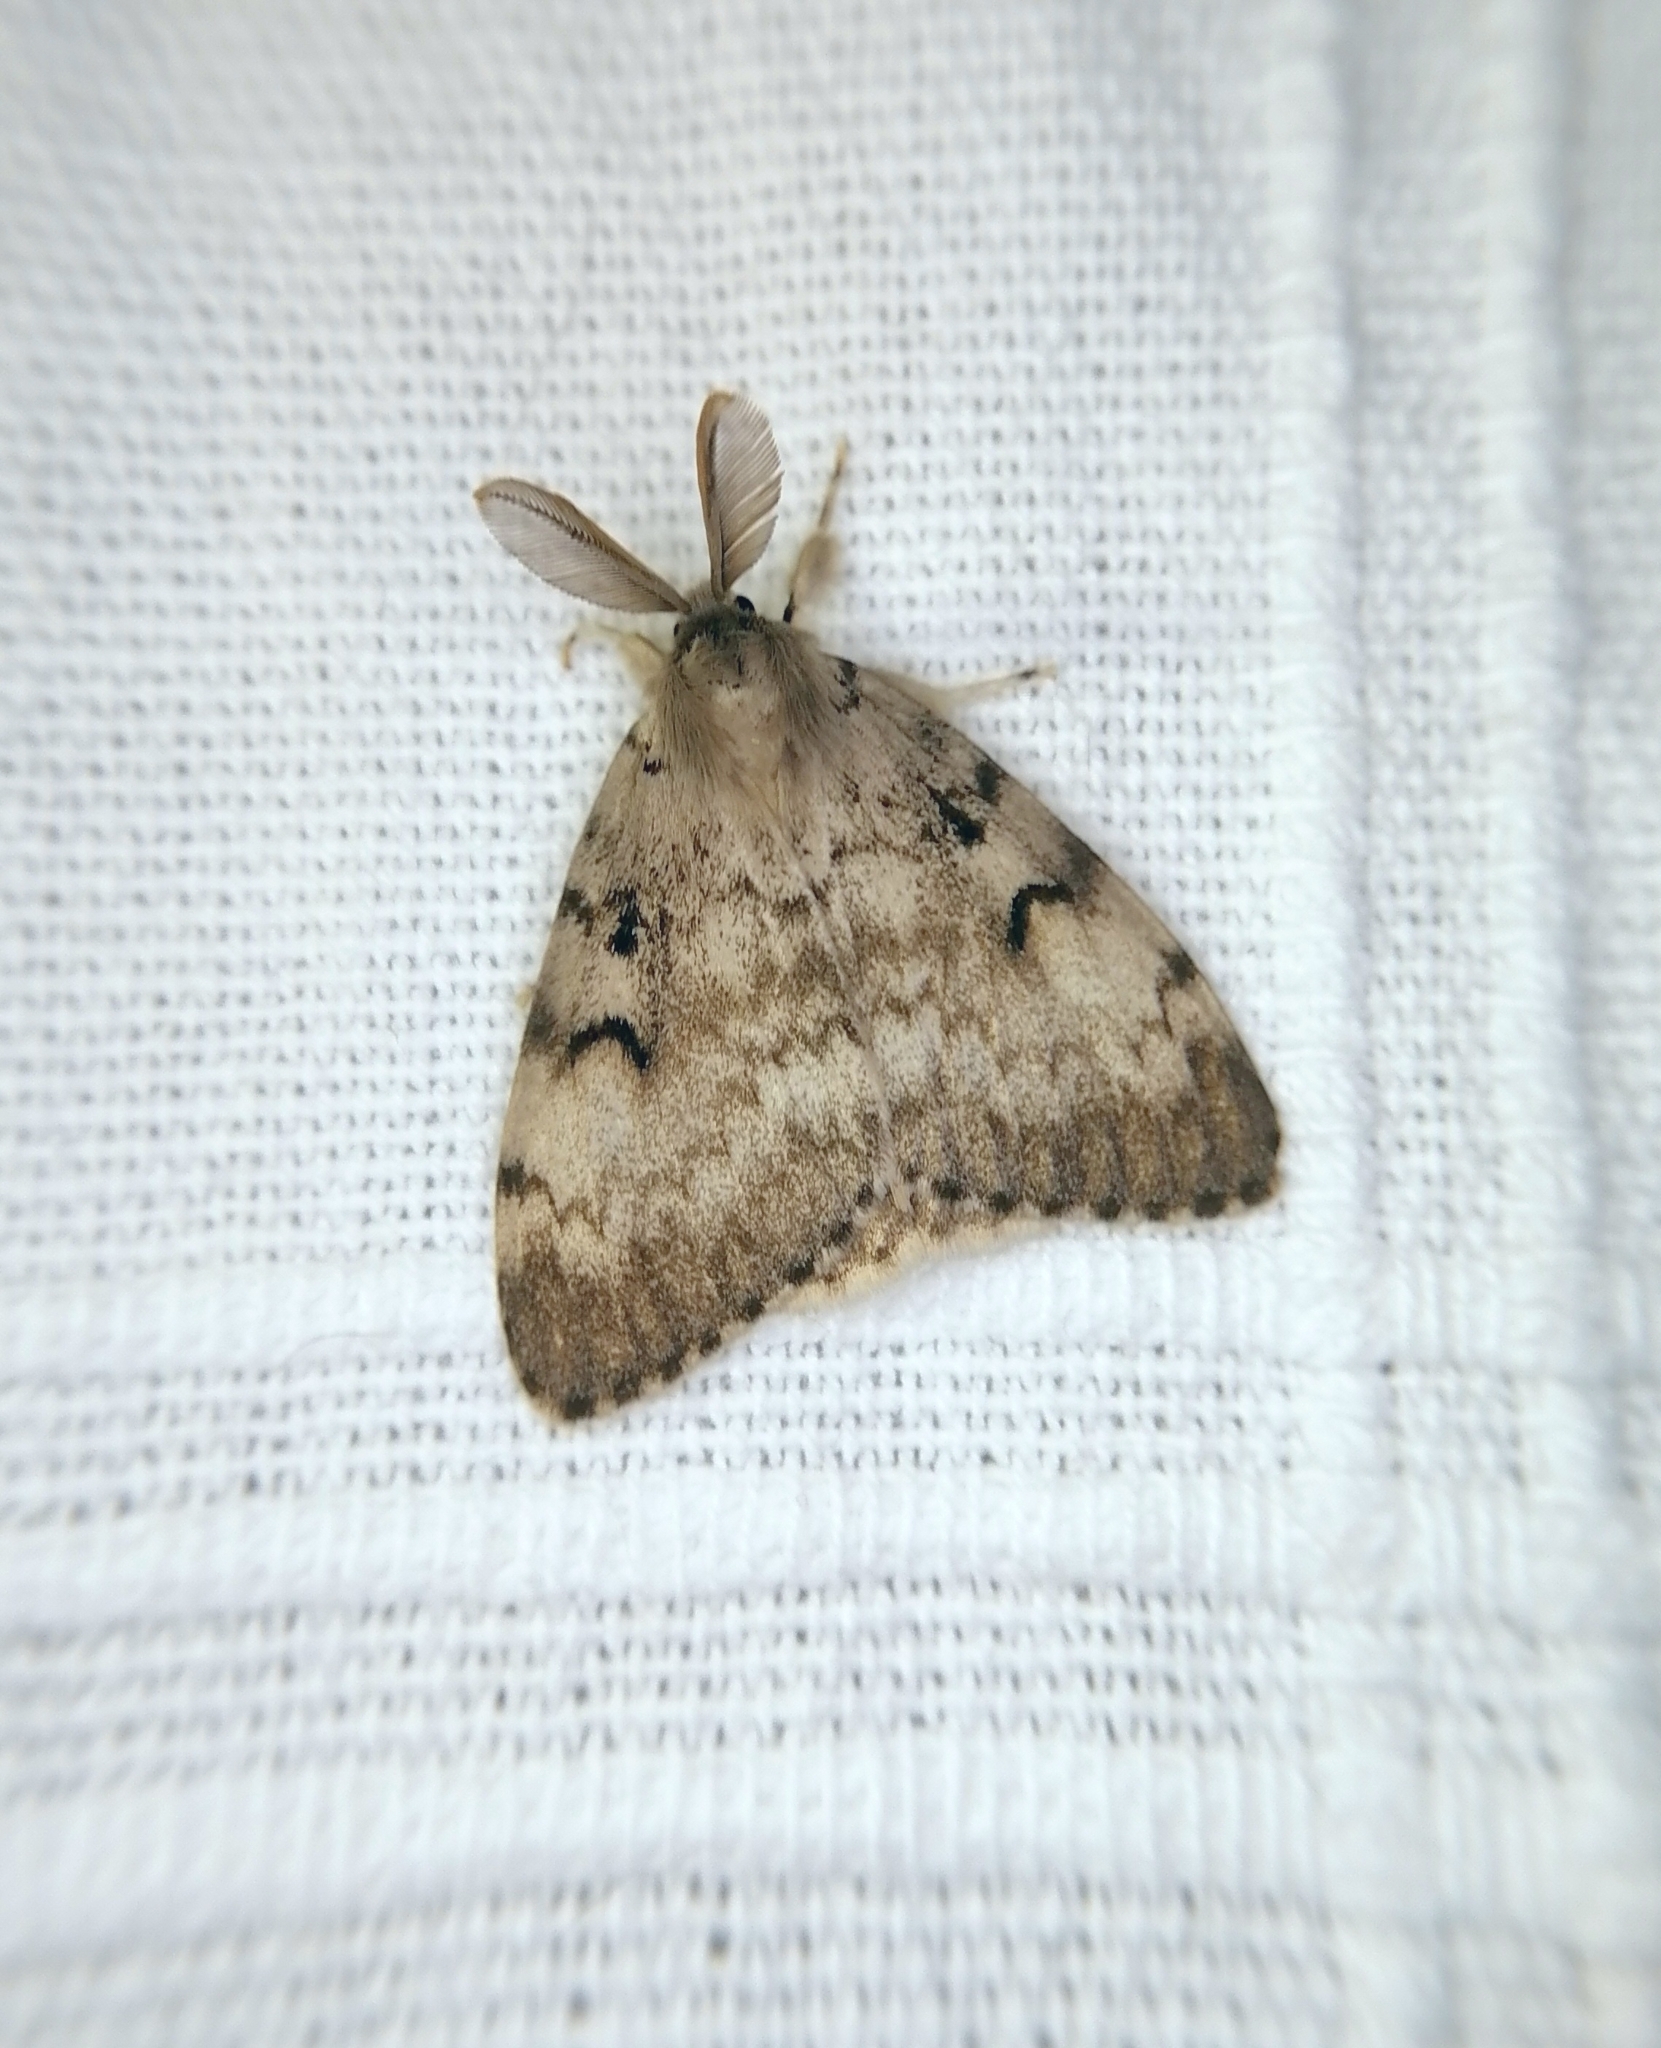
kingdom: Animalia
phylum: Arthropoda
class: Insecta
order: Lepidoptera
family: Erebidae
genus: Lymantria
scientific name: Lymantria dispar
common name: Gypsy moth
